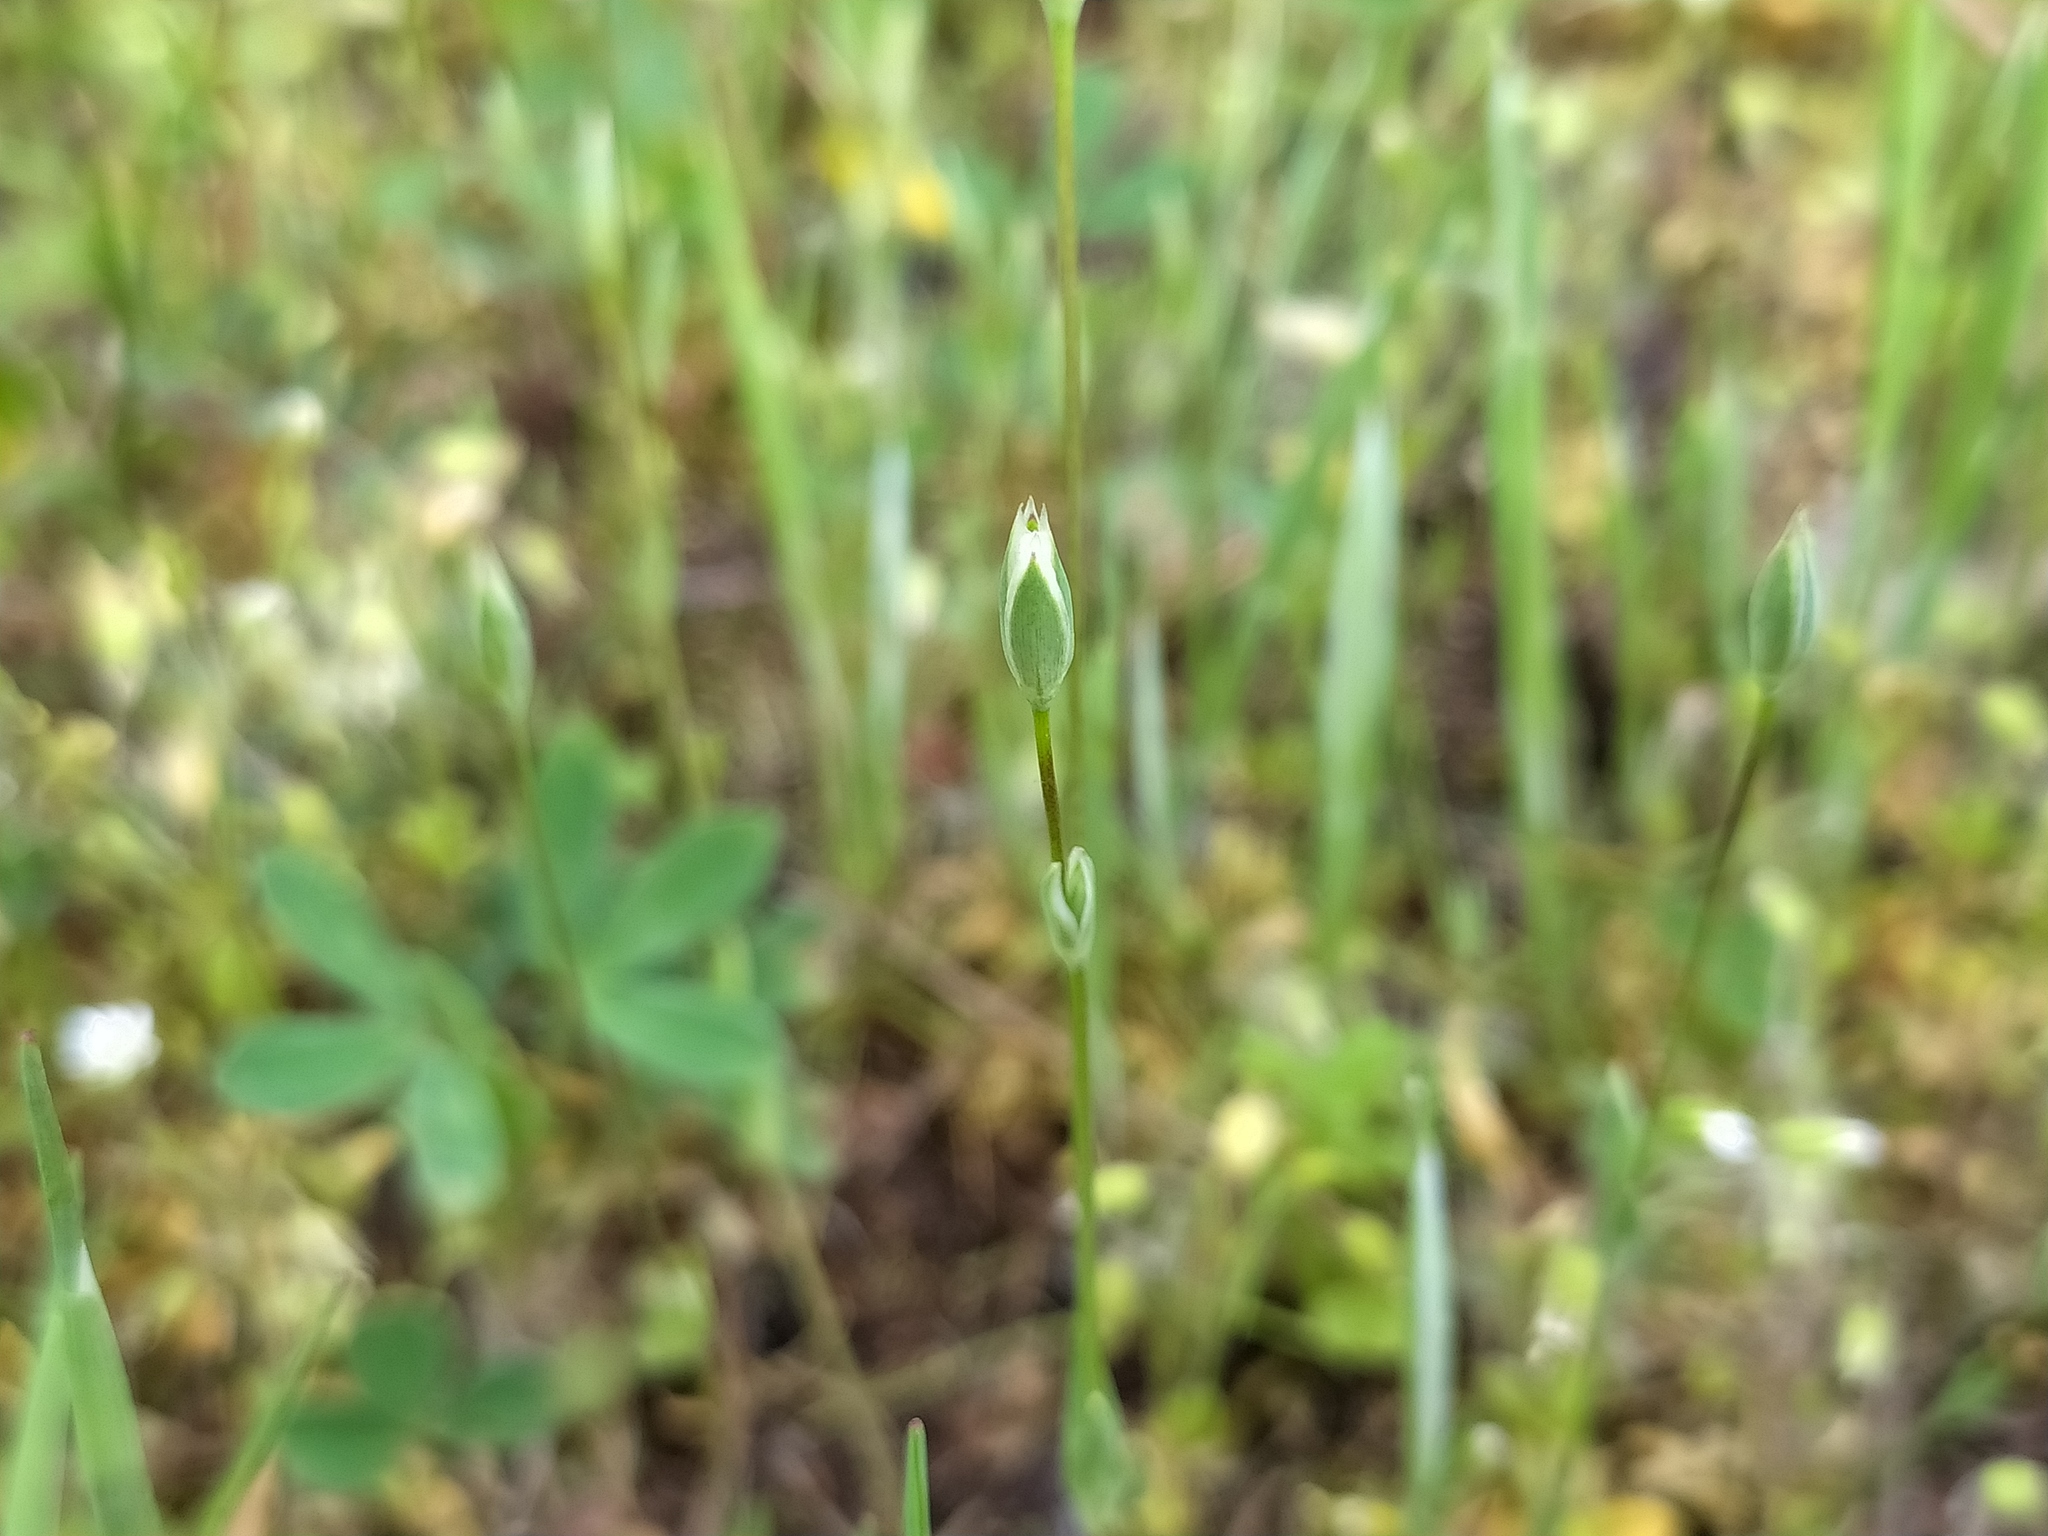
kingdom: Plantae
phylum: Tracheophyta
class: Magnoliopsida
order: Caryophyllales
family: Caryophyllaceae
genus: Moenchia
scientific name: Moenchia erecta
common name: Upright chickweed
